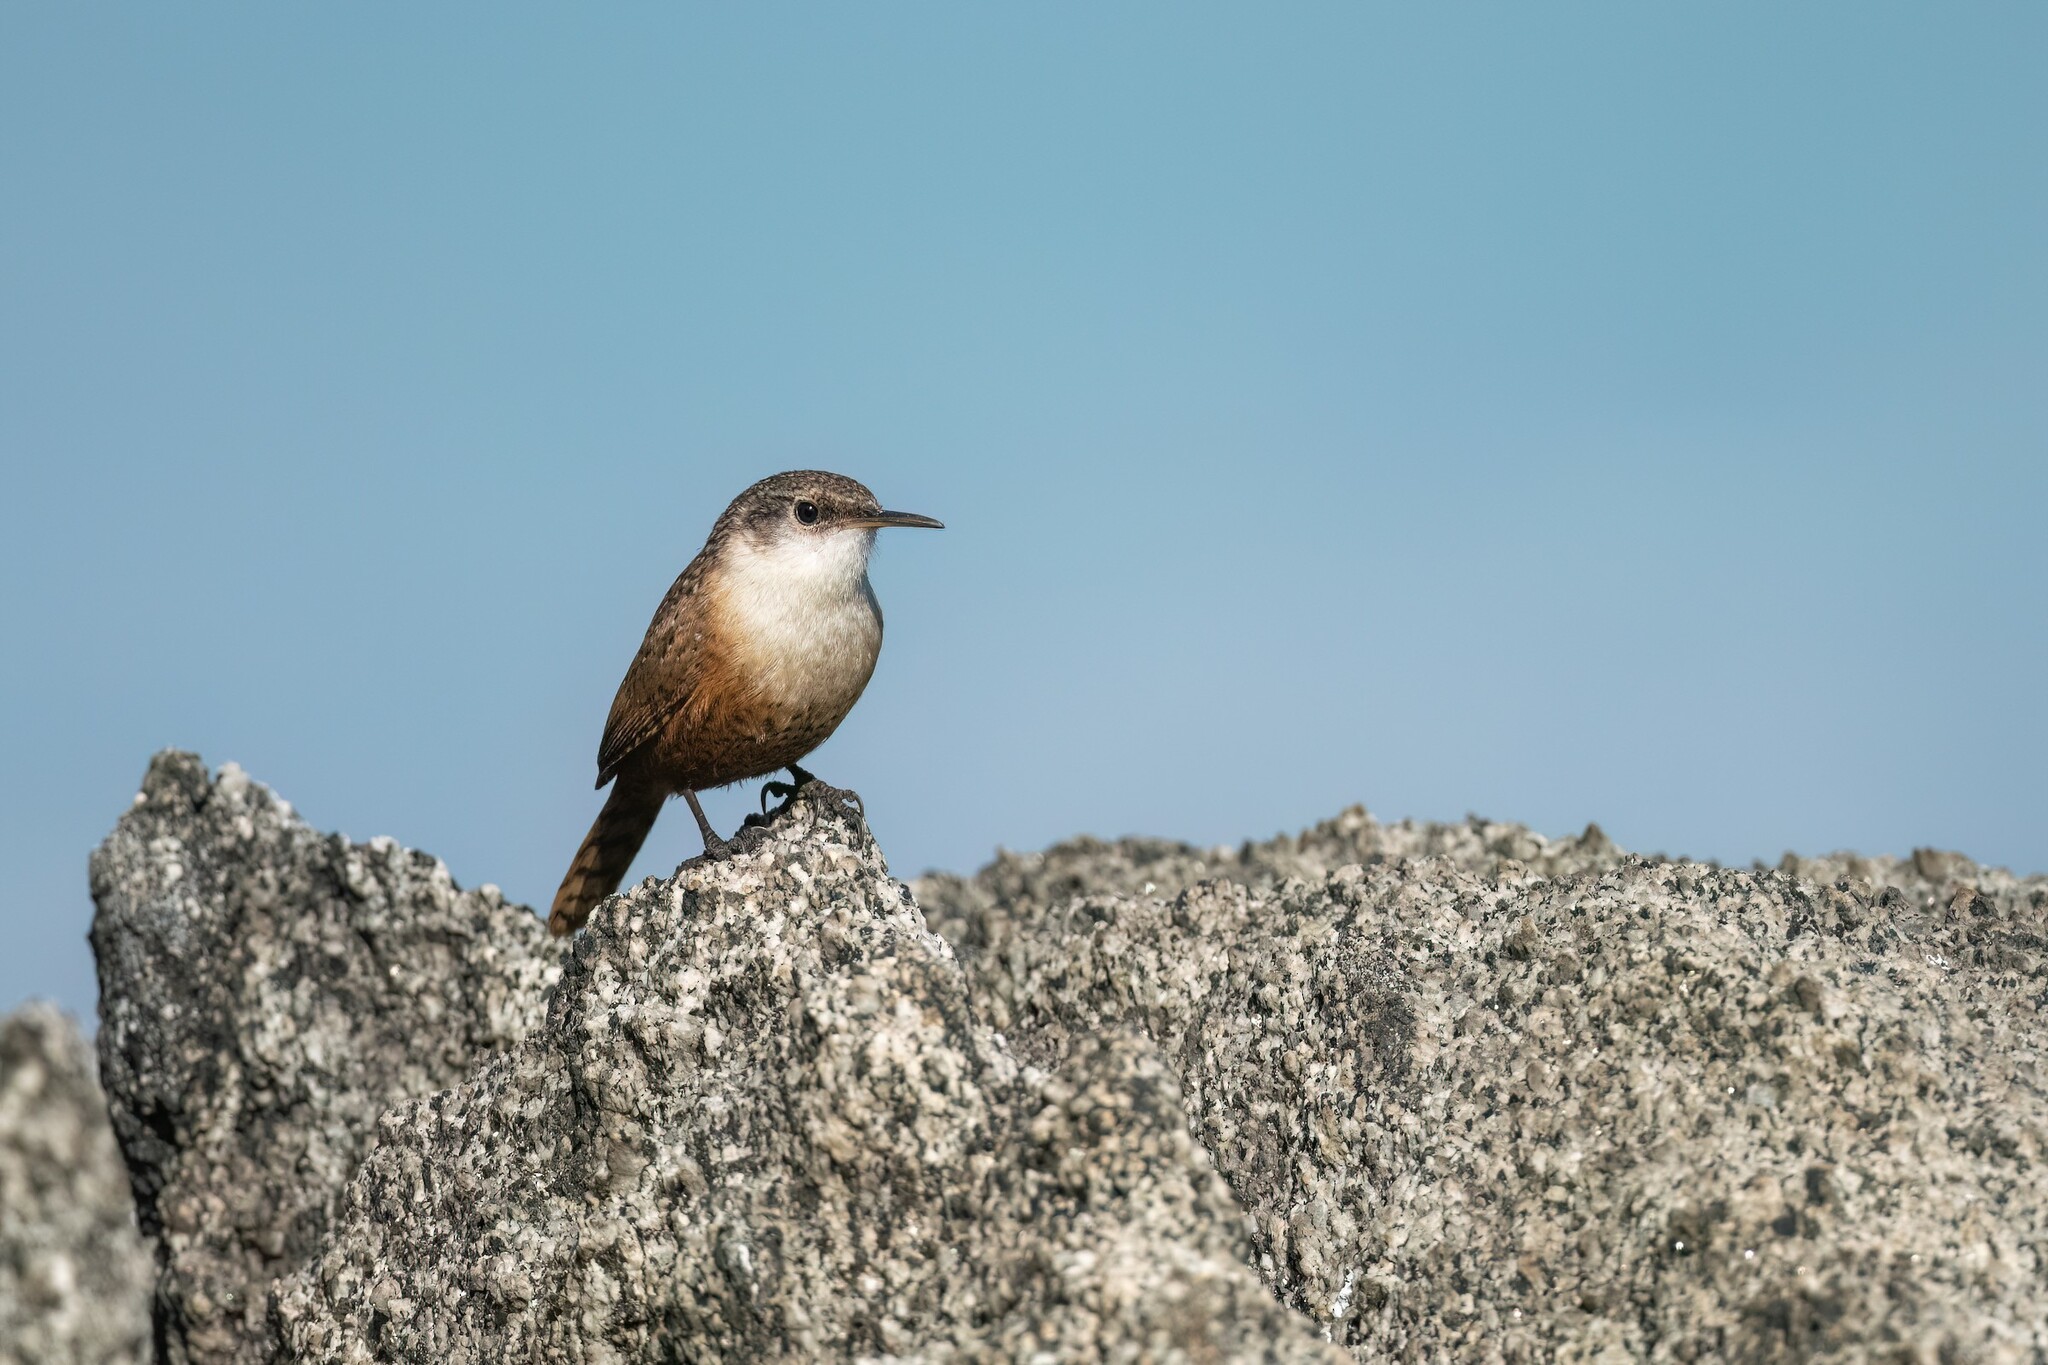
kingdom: Animalia
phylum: Chordata
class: Aves
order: Passeriformes
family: Troglodytidae
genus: Catherpes
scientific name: Catherpes mexicanus
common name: Canyon wren
